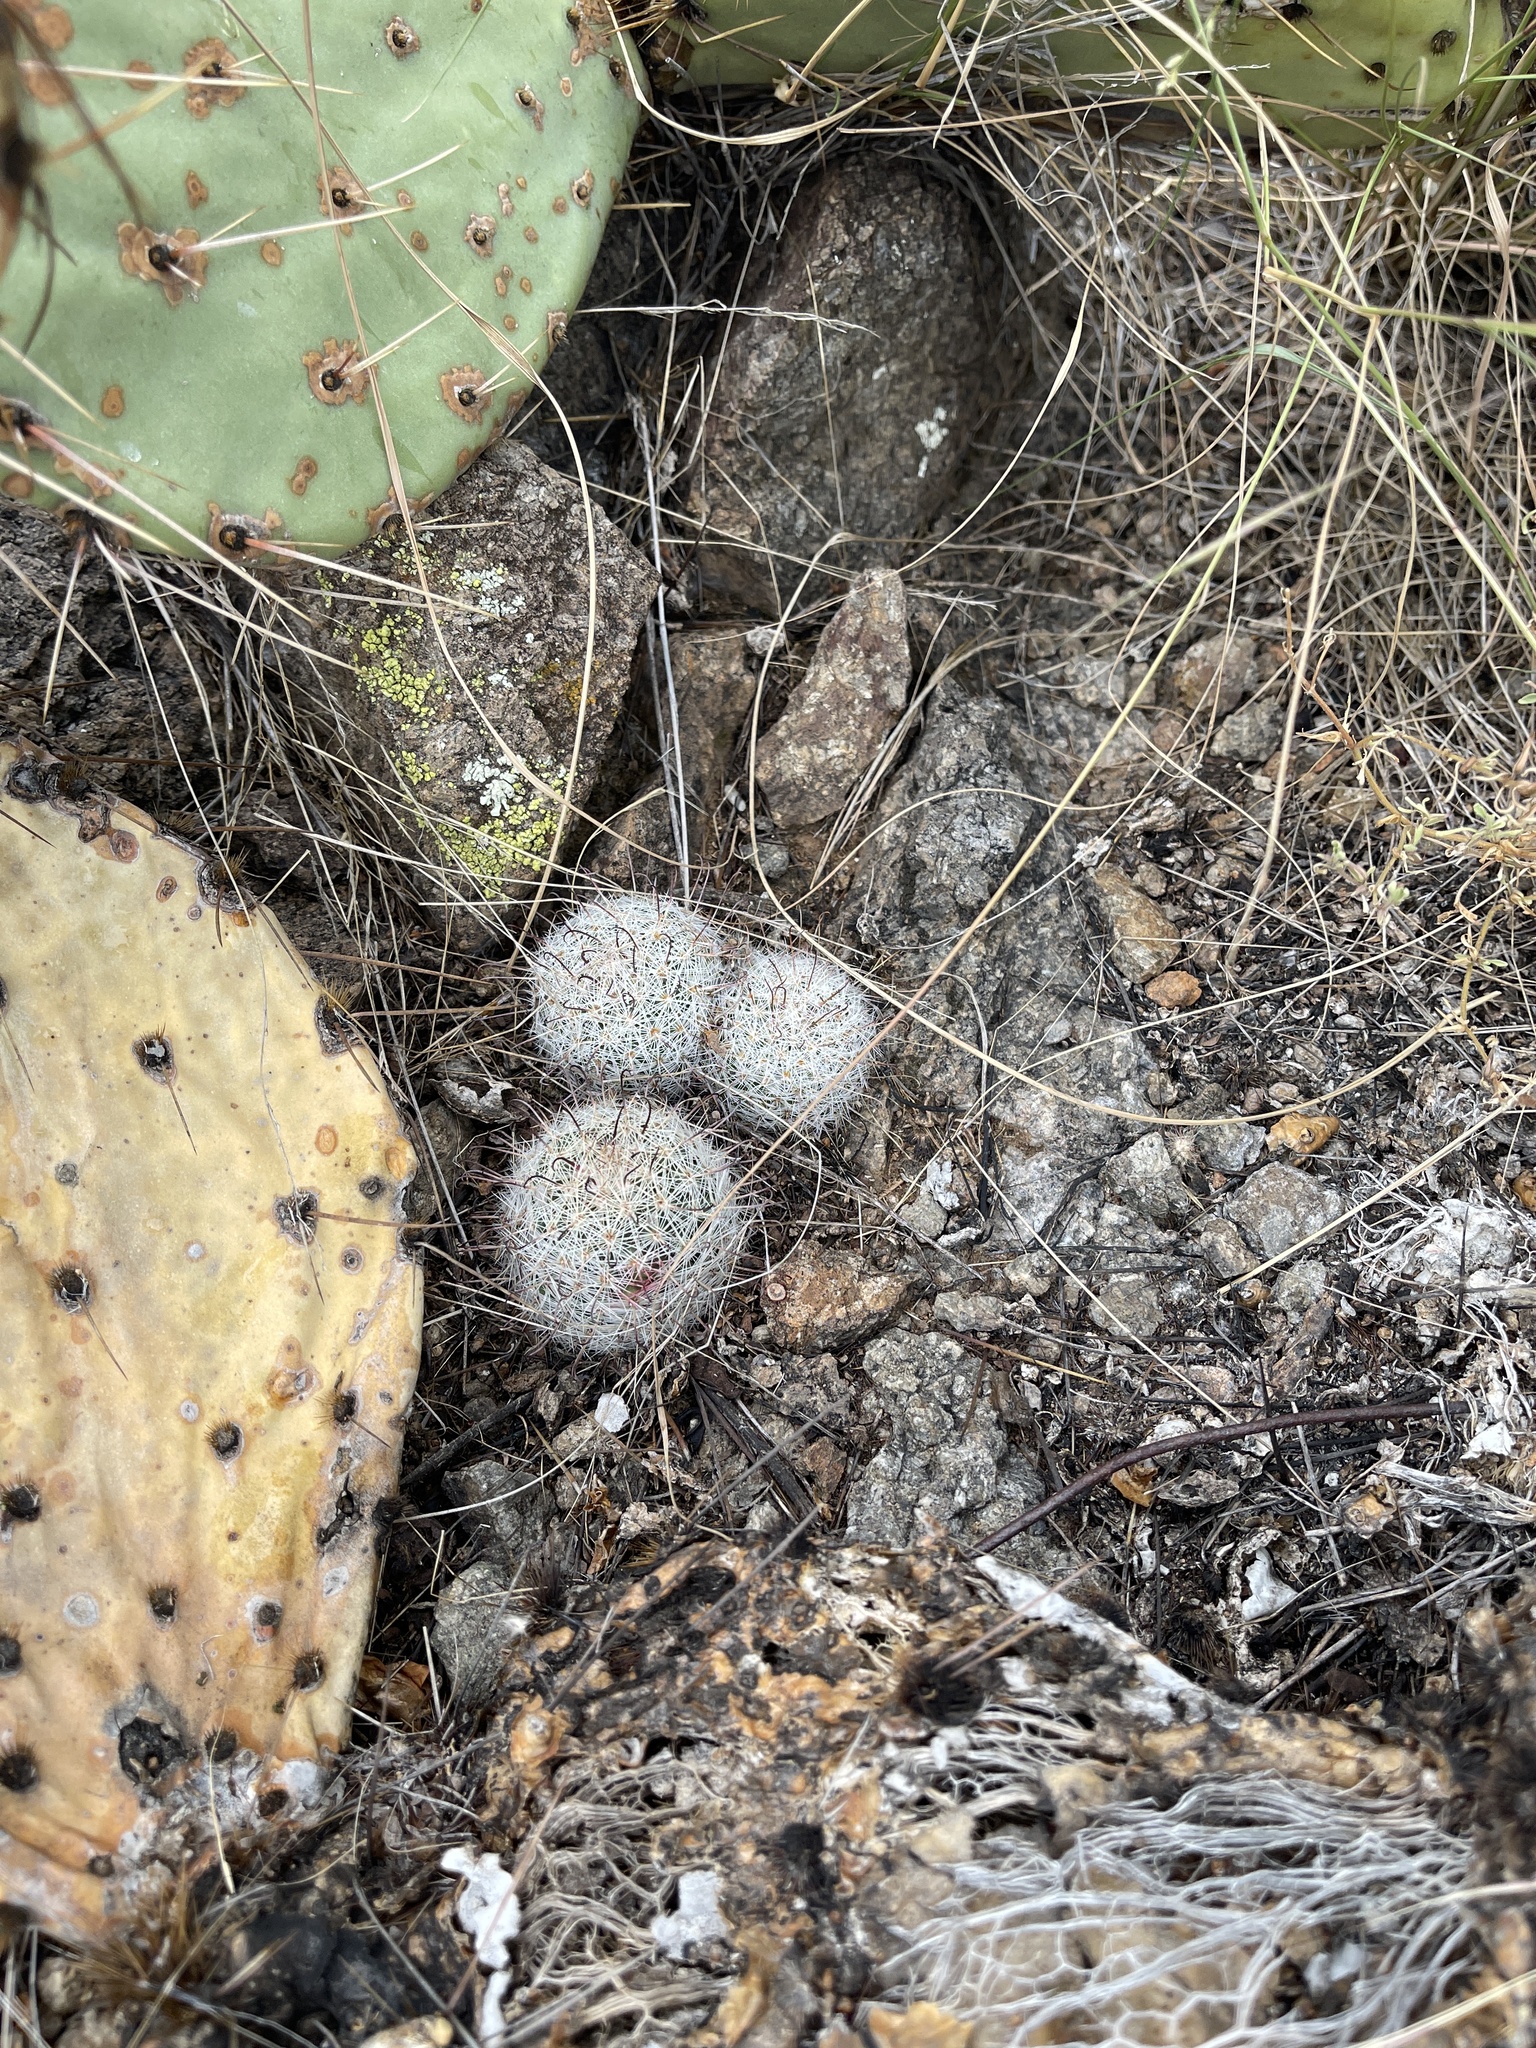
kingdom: Plantae
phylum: Tracheophyta
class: Magnoliopsida
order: Caryophyllales
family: Cactaceae
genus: Cochemiea
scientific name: Cochemiea grahamii
